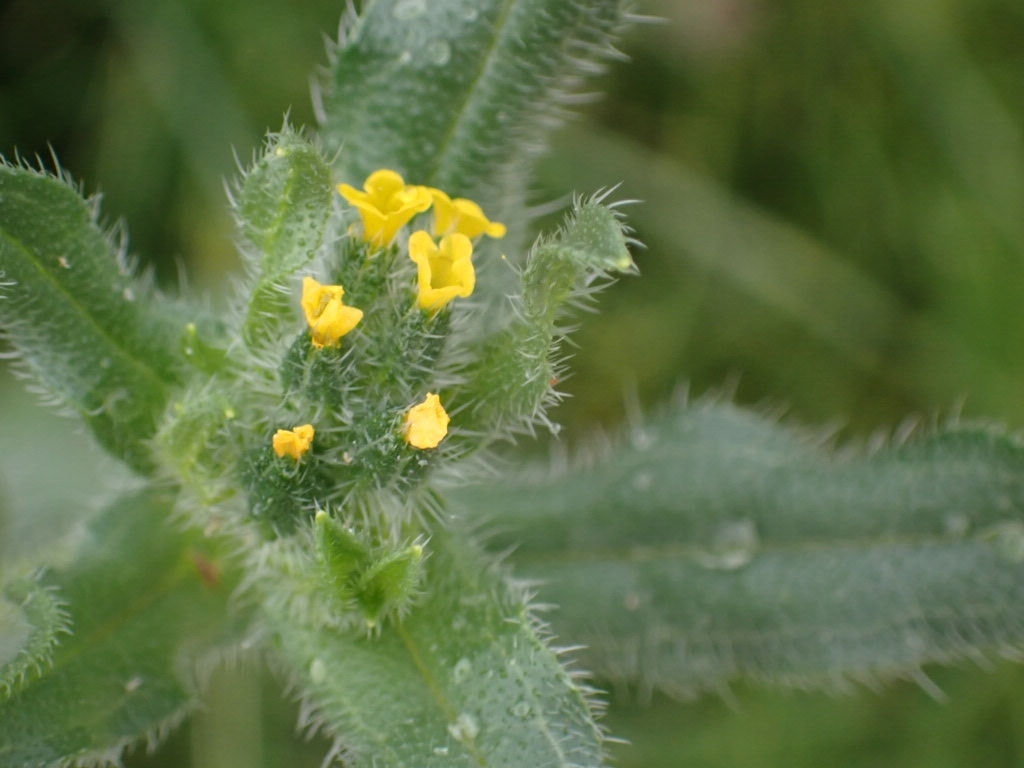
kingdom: Plantae
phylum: Tracheophyta
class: Magnoliopsida
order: Boraginales
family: Boraginaceae
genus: Amsinckia
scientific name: Amsinckia menziesii
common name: Menzies' fiddleneck
